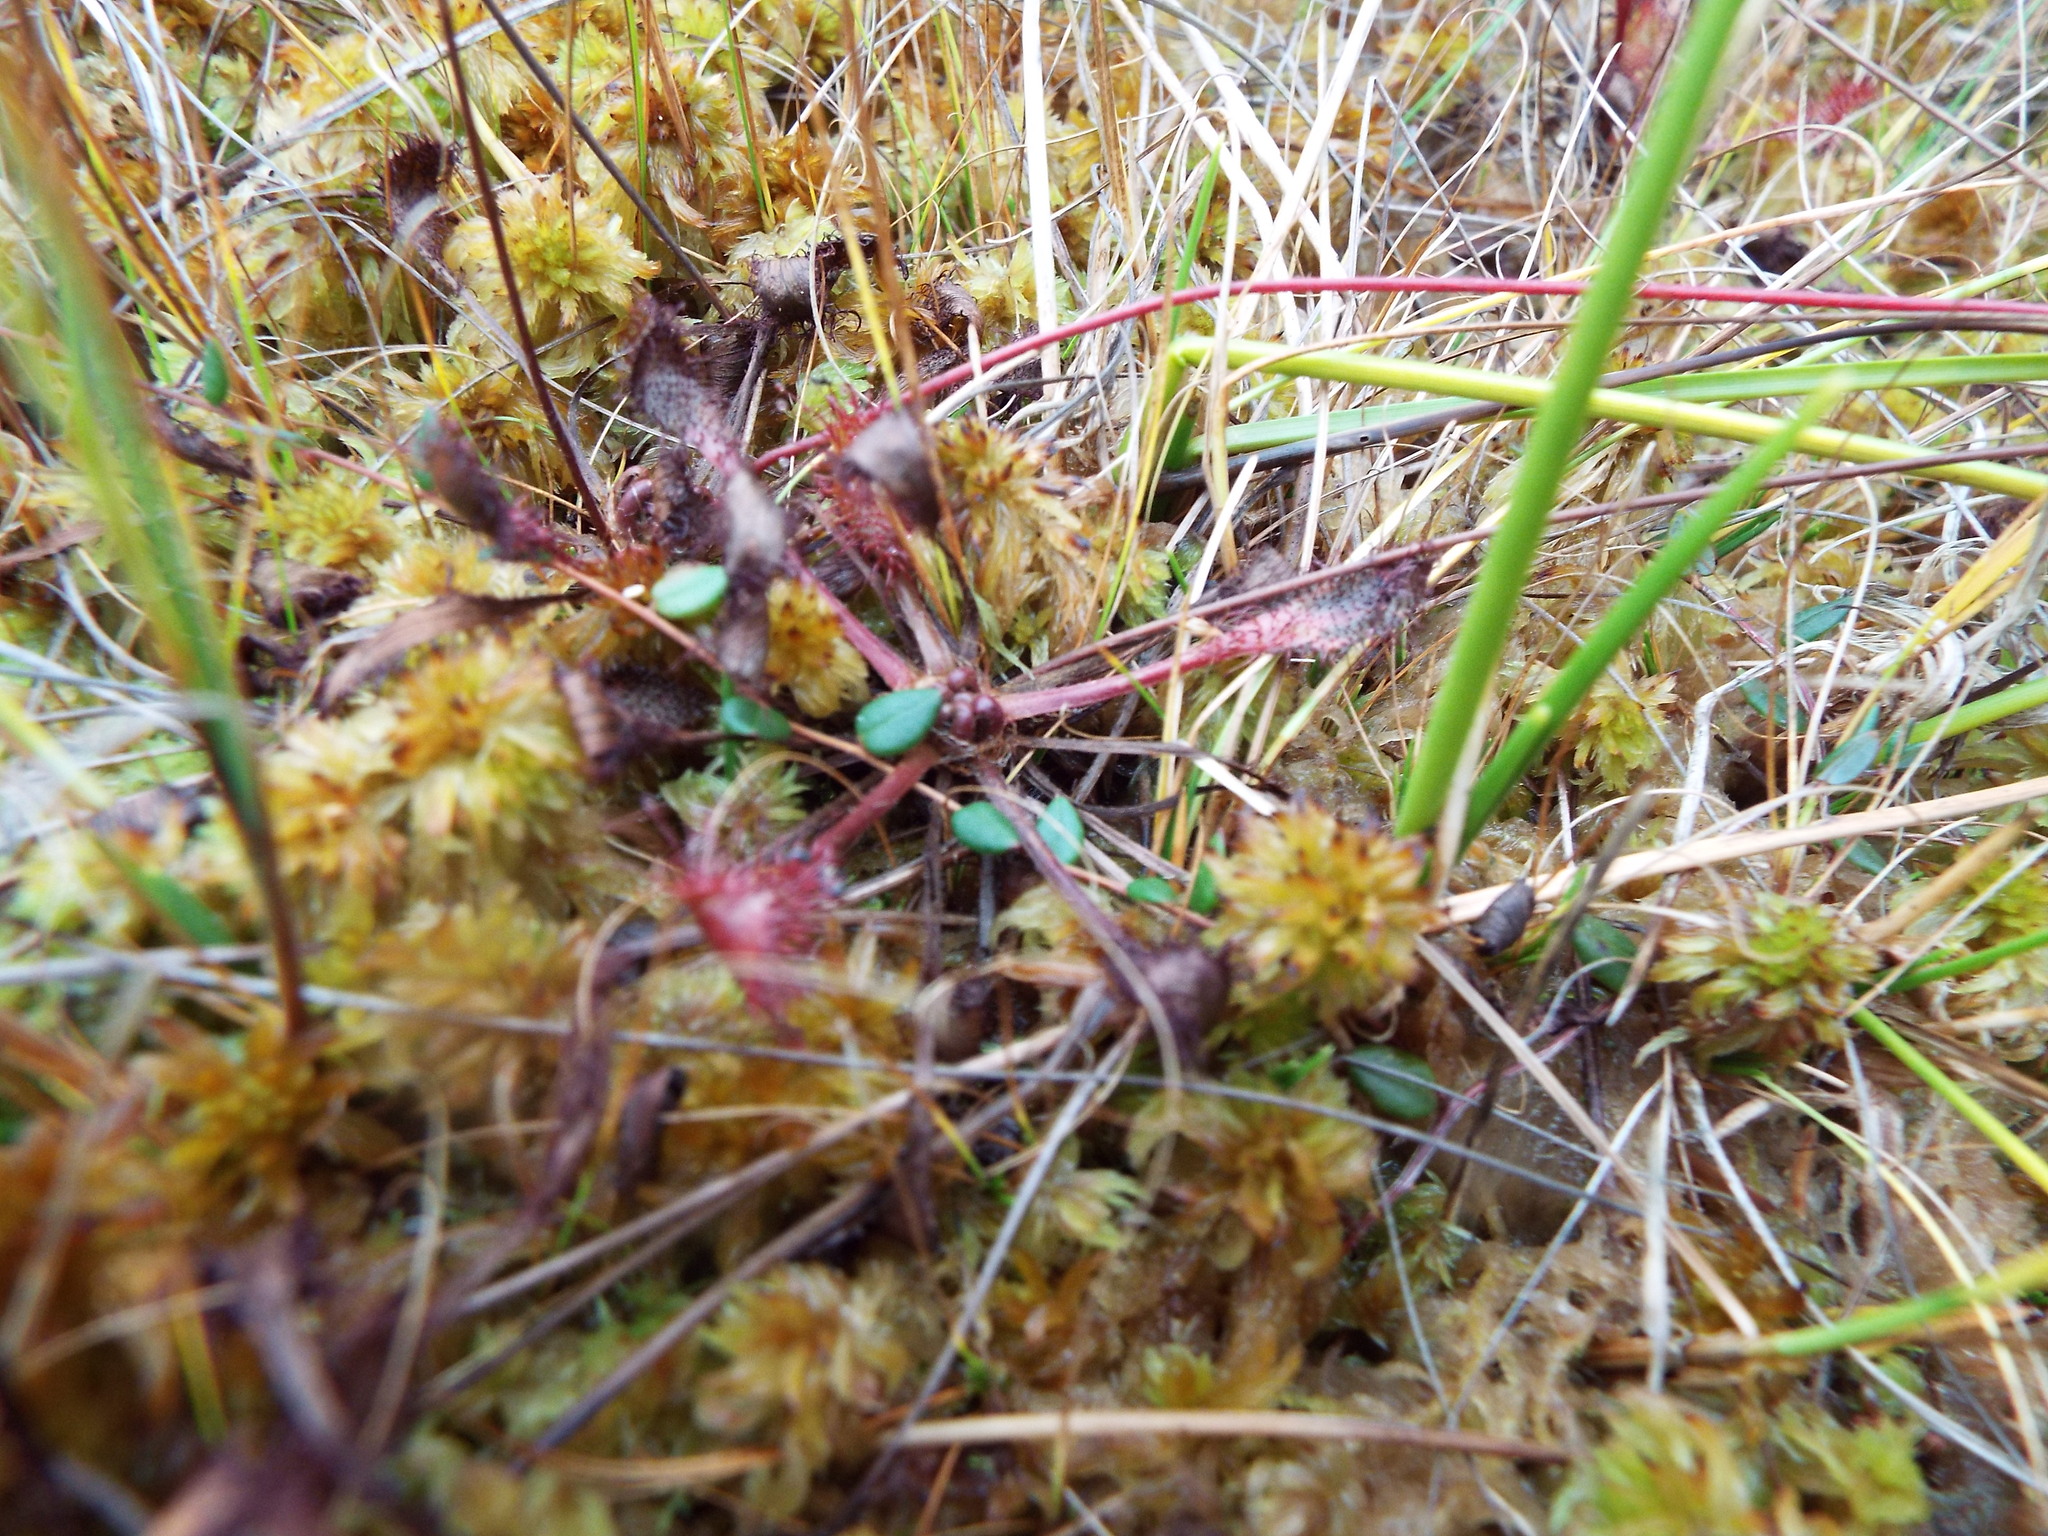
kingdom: Plantae
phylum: Tracheophyta
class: Magnoliopsida
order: Caryophyllales
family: Droseraceae
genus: Drosera
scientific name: Drosera obovata
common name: Ivan's paddle
